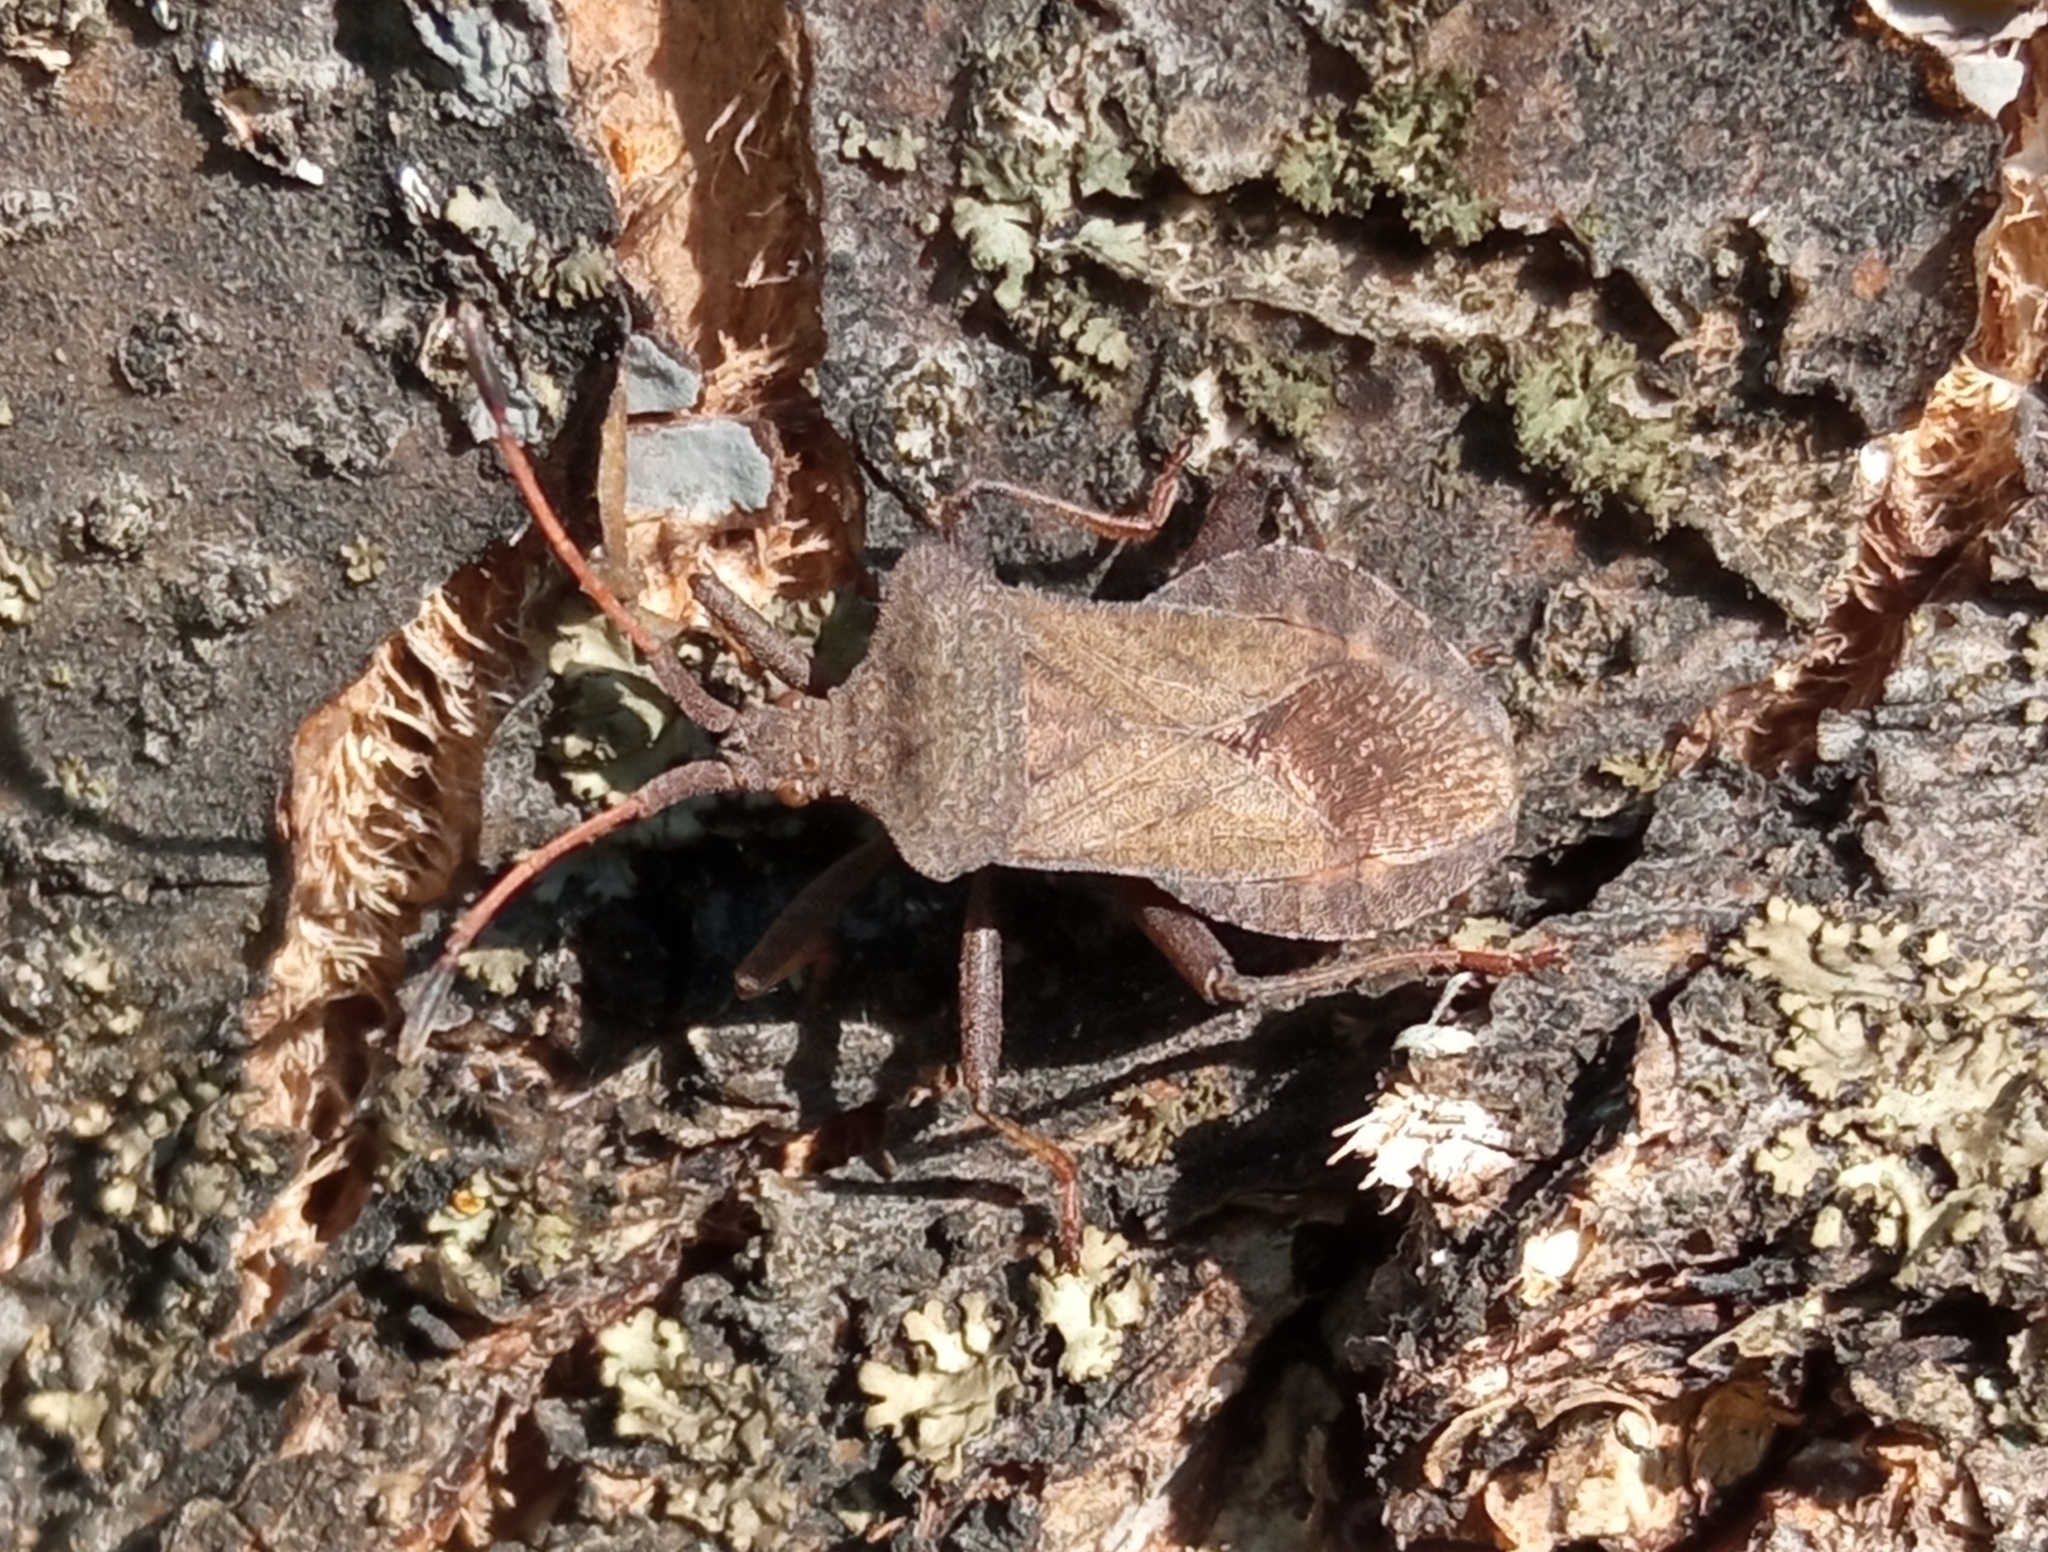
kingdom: Animalia
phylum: Arthropoda
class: Insecta
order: Hemiptera
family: Coreidae
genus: Coreus
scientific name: Coreus marginatus
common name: Dock bug
